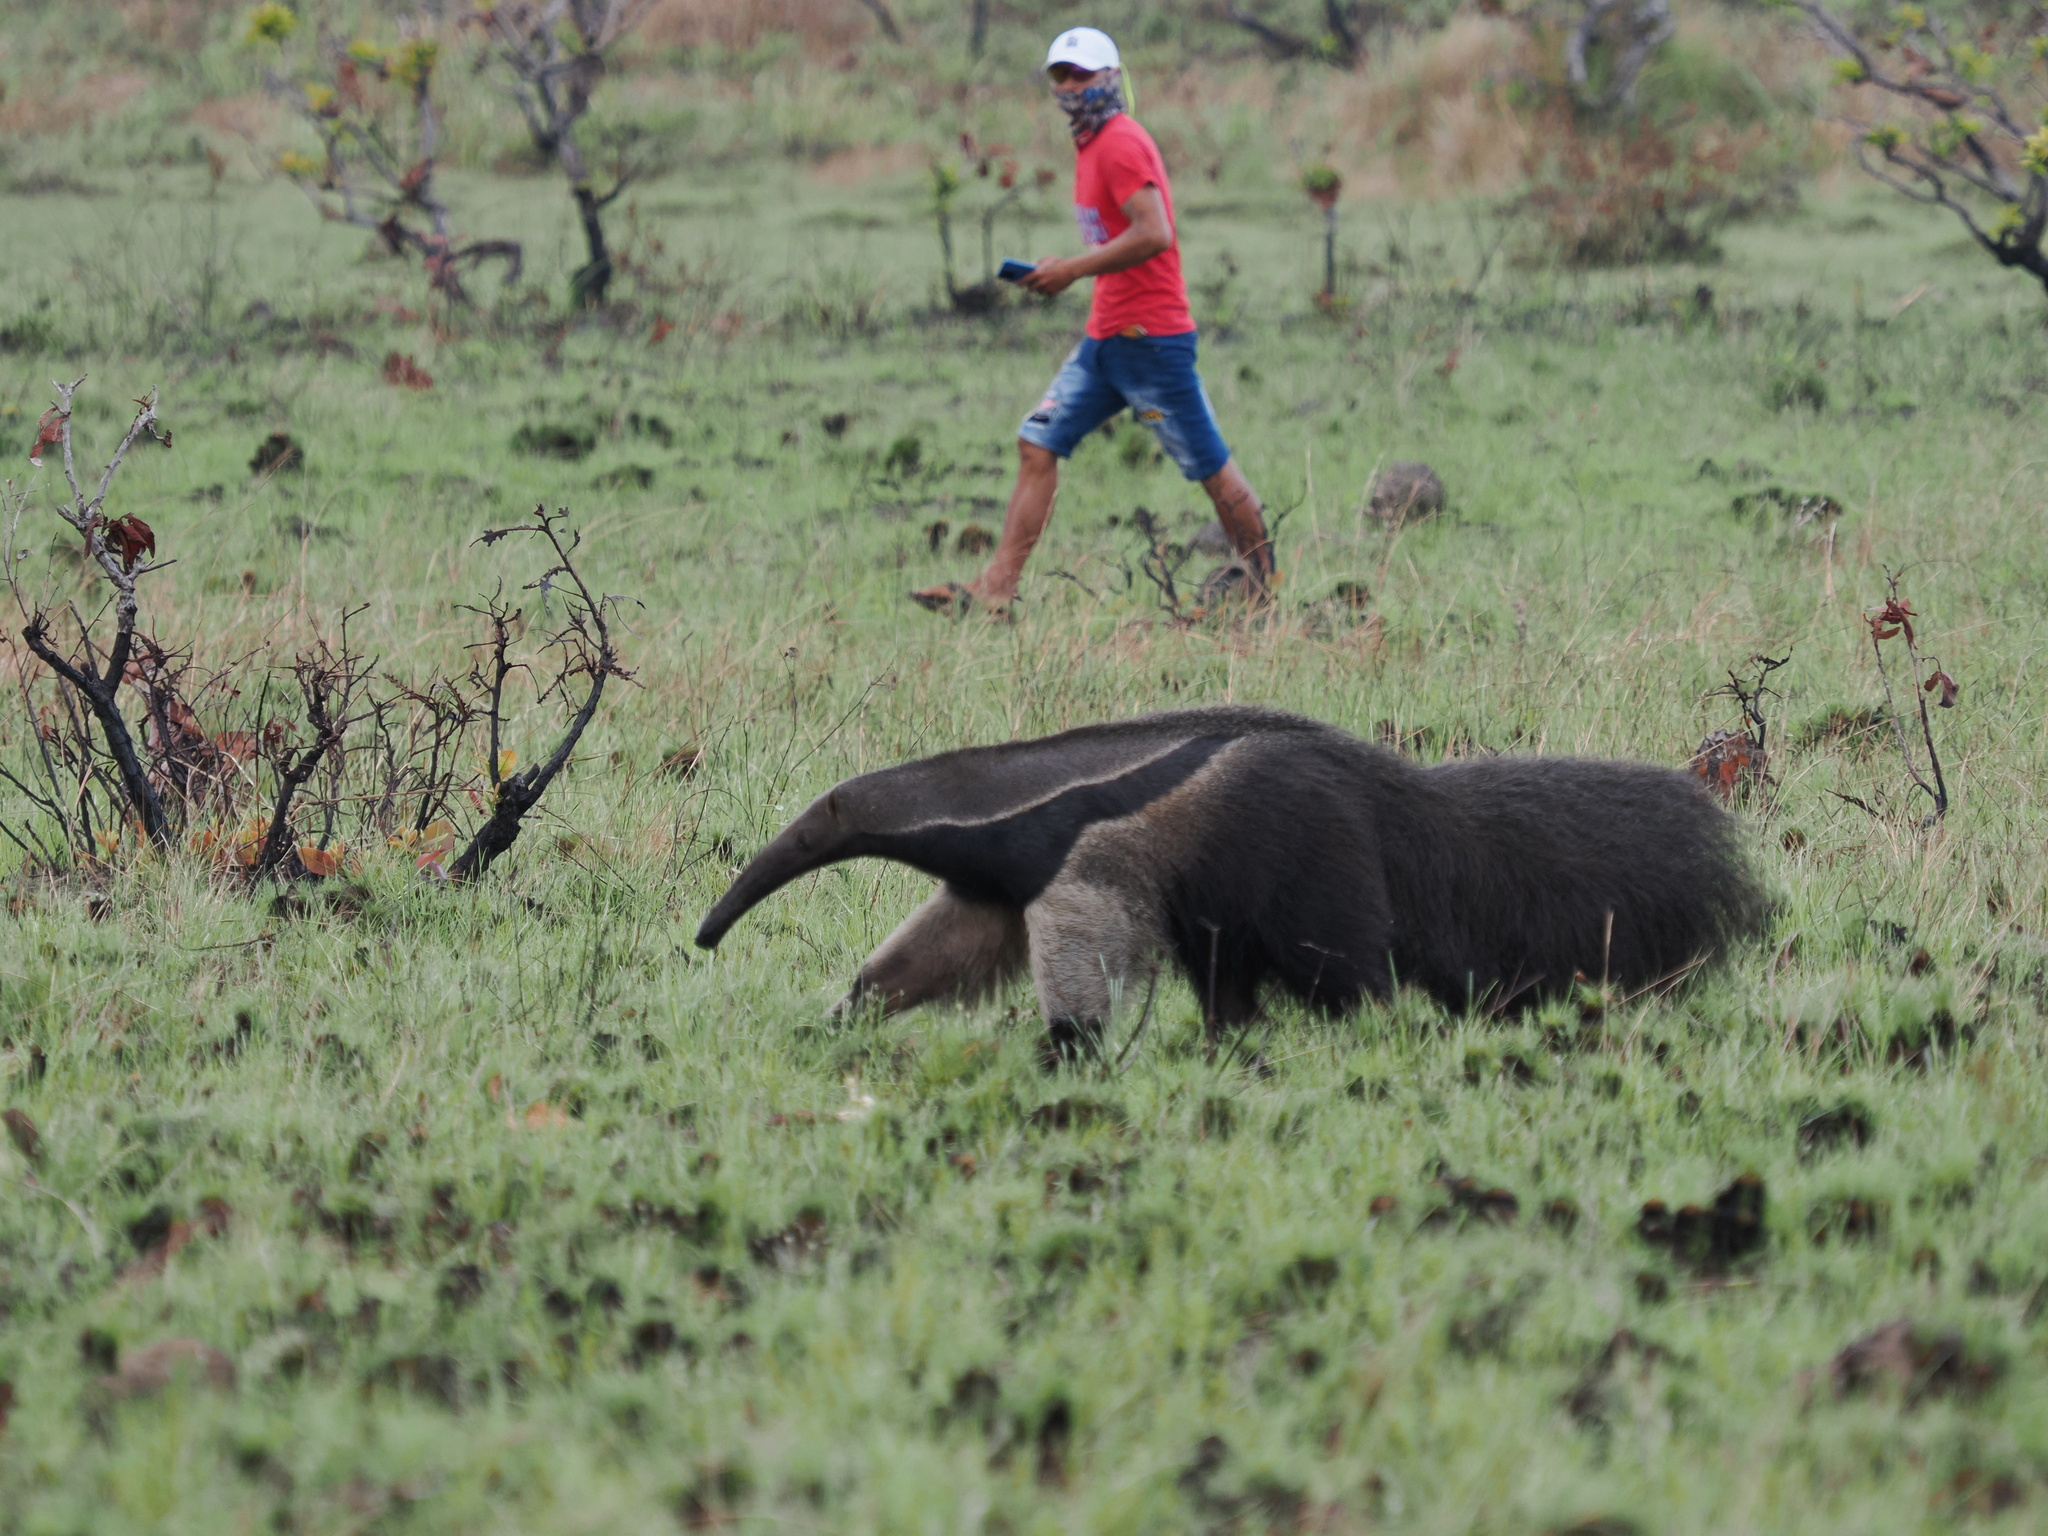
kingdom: Animalia
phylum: Chordata
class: Mammalia
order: Pilosa
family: Myrmecophagidae
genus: Myrmecophaga
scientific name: Myrmecophaga tridactyla
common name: Giant anteater
